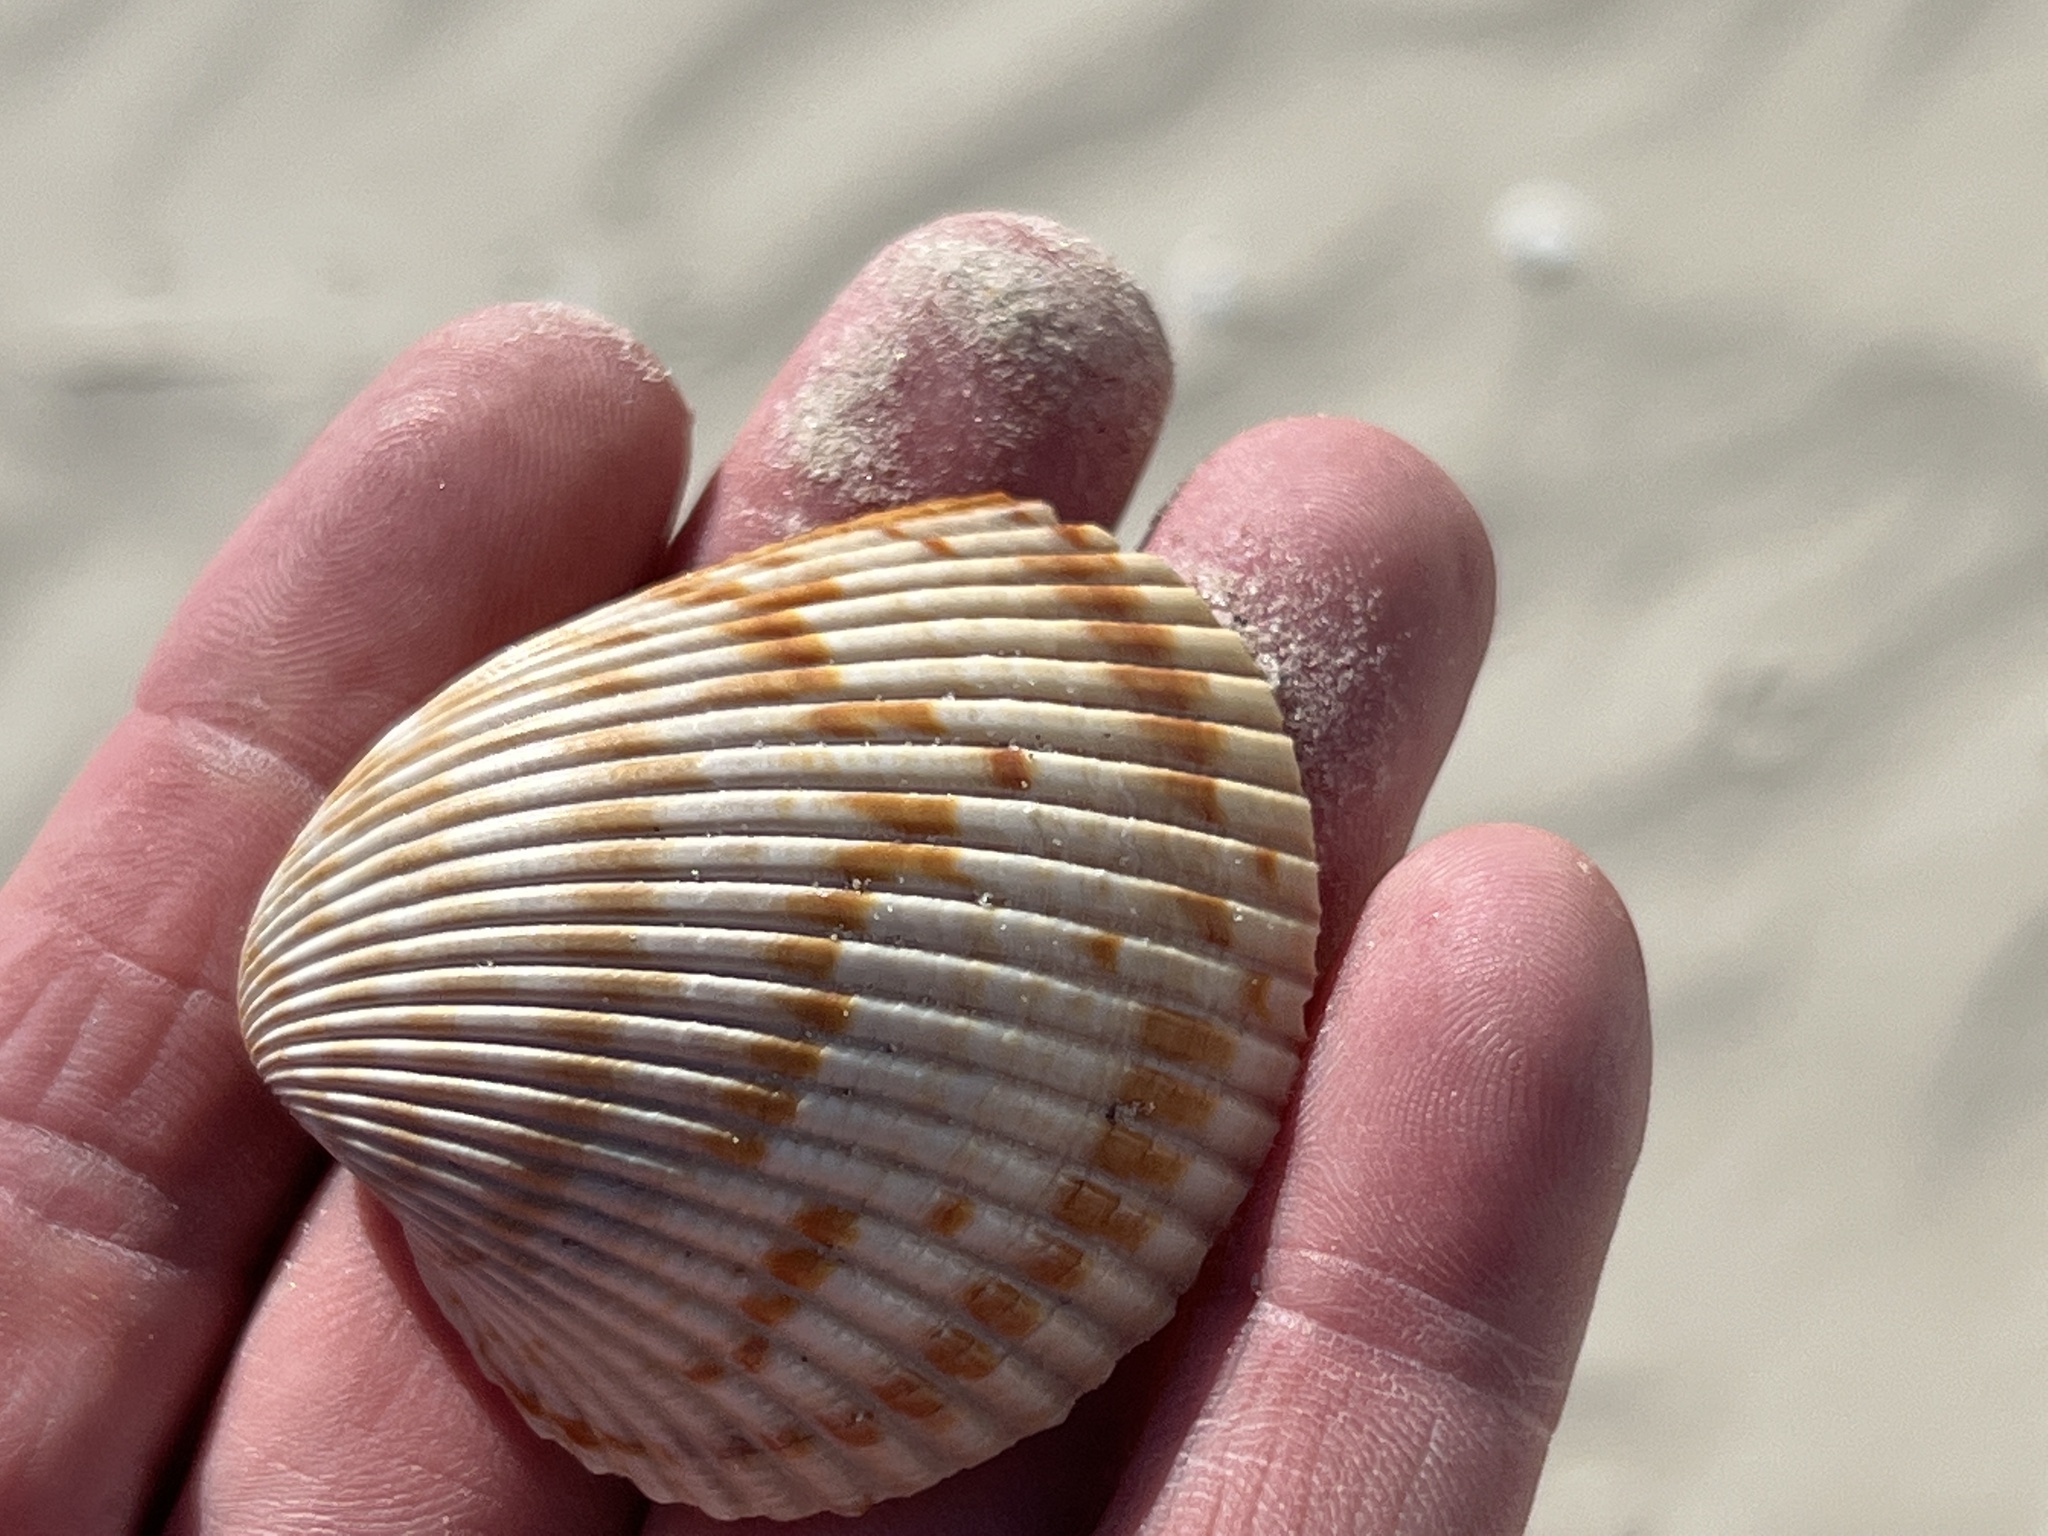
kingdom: Animalia
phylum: Mollusca
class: Bivalvia
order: Cardiida
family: Cardiidae
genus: Dinocardium
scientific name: Dinocardium robustum
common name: Atlantic giant cockle
